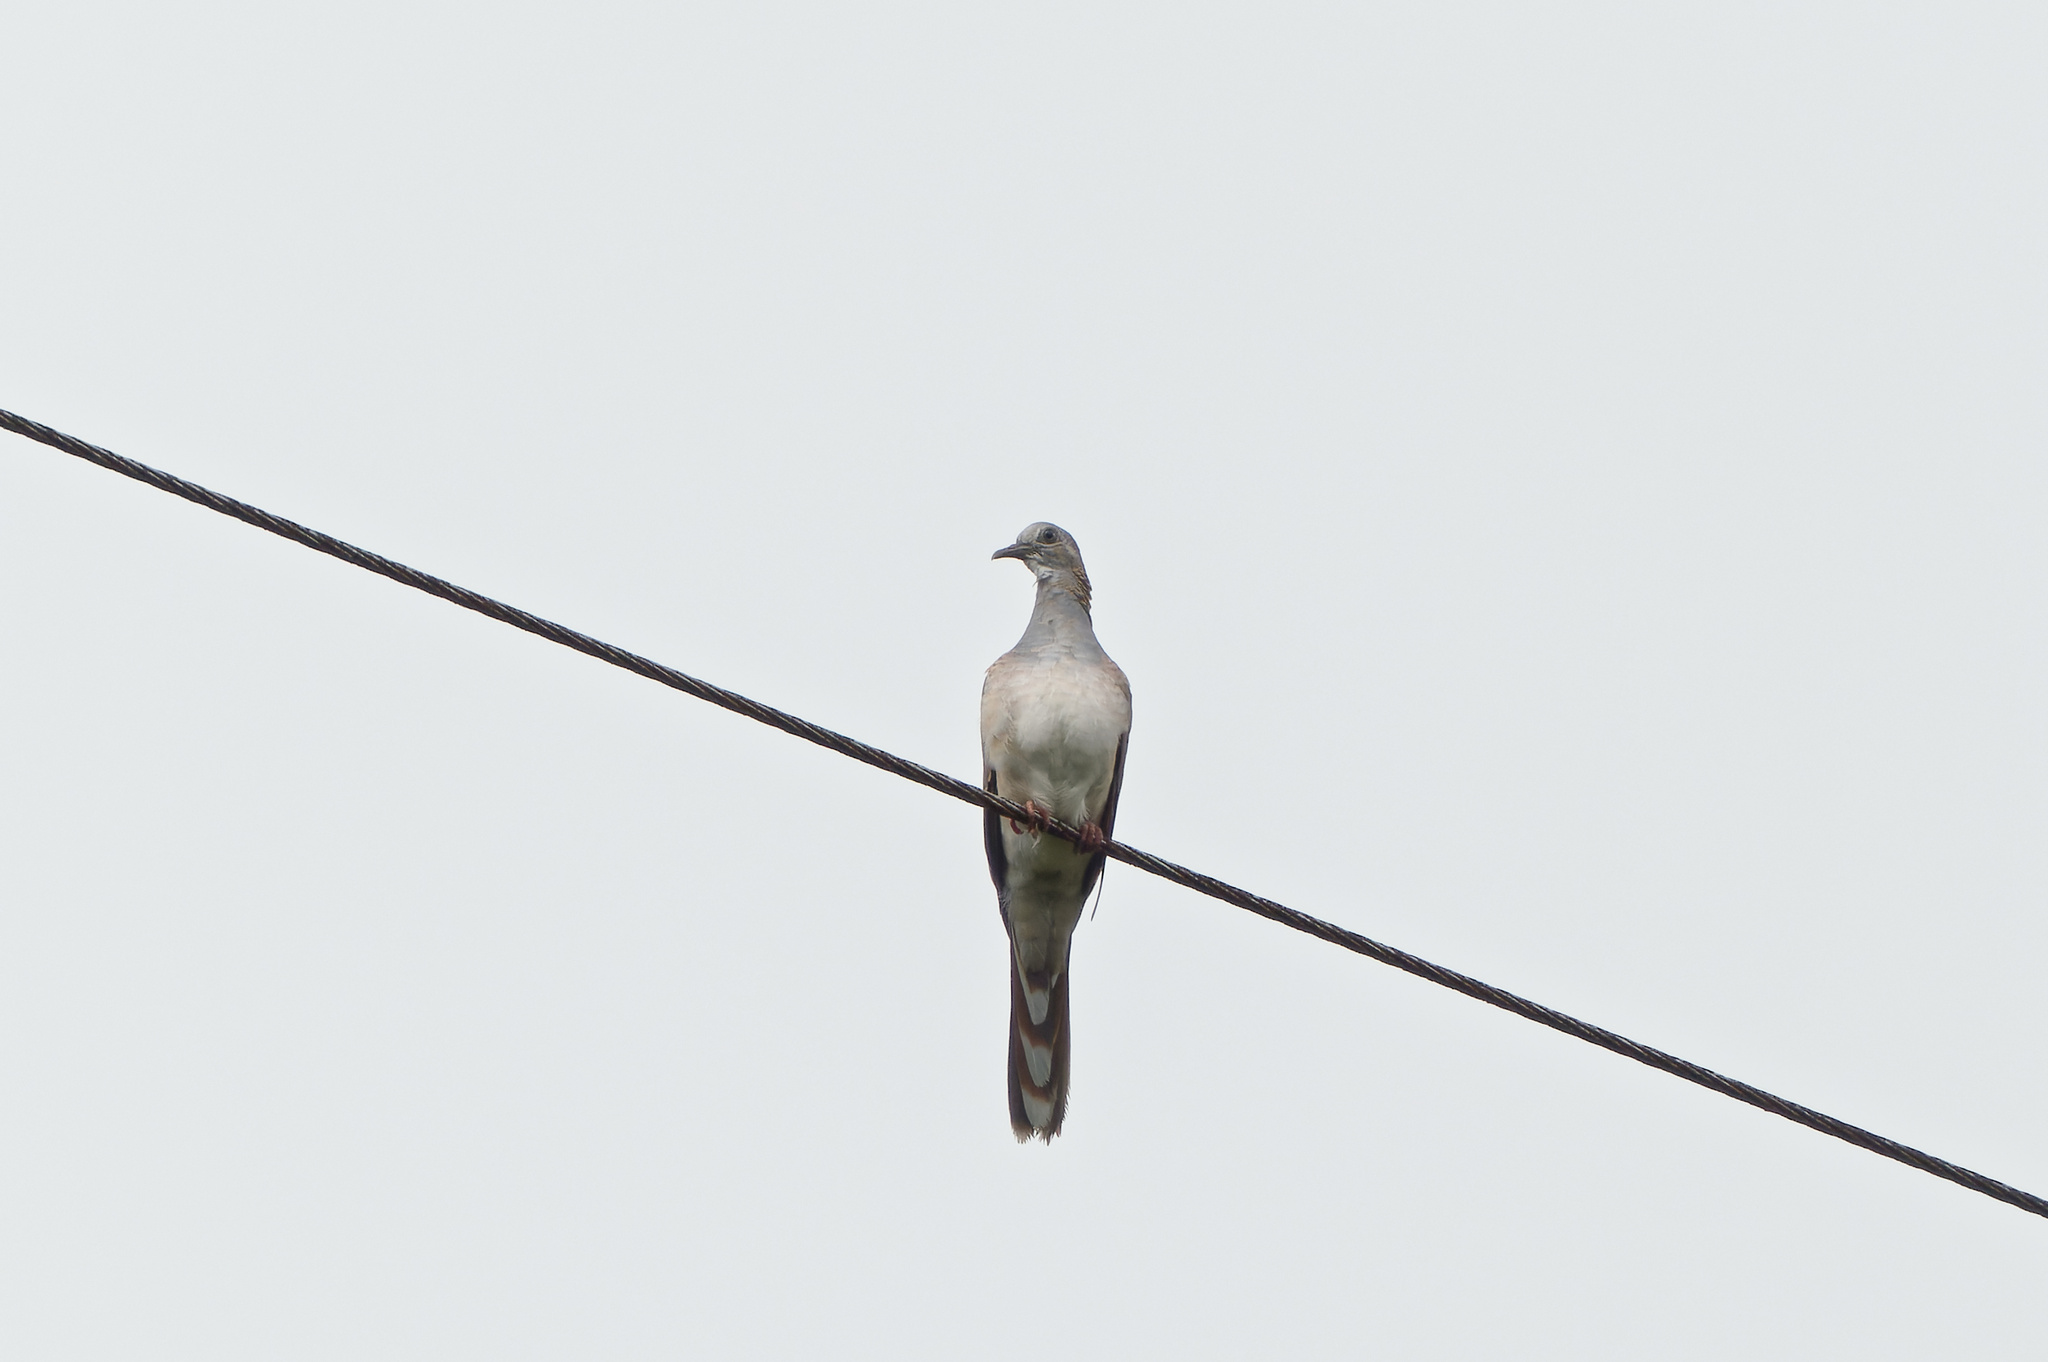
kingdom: Animalia
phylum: Chordata
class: Aves
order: Columbiformes
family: Columbidae
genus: Geopelia
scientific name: Geopelia humeralis
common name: Bar-shouldered dove
